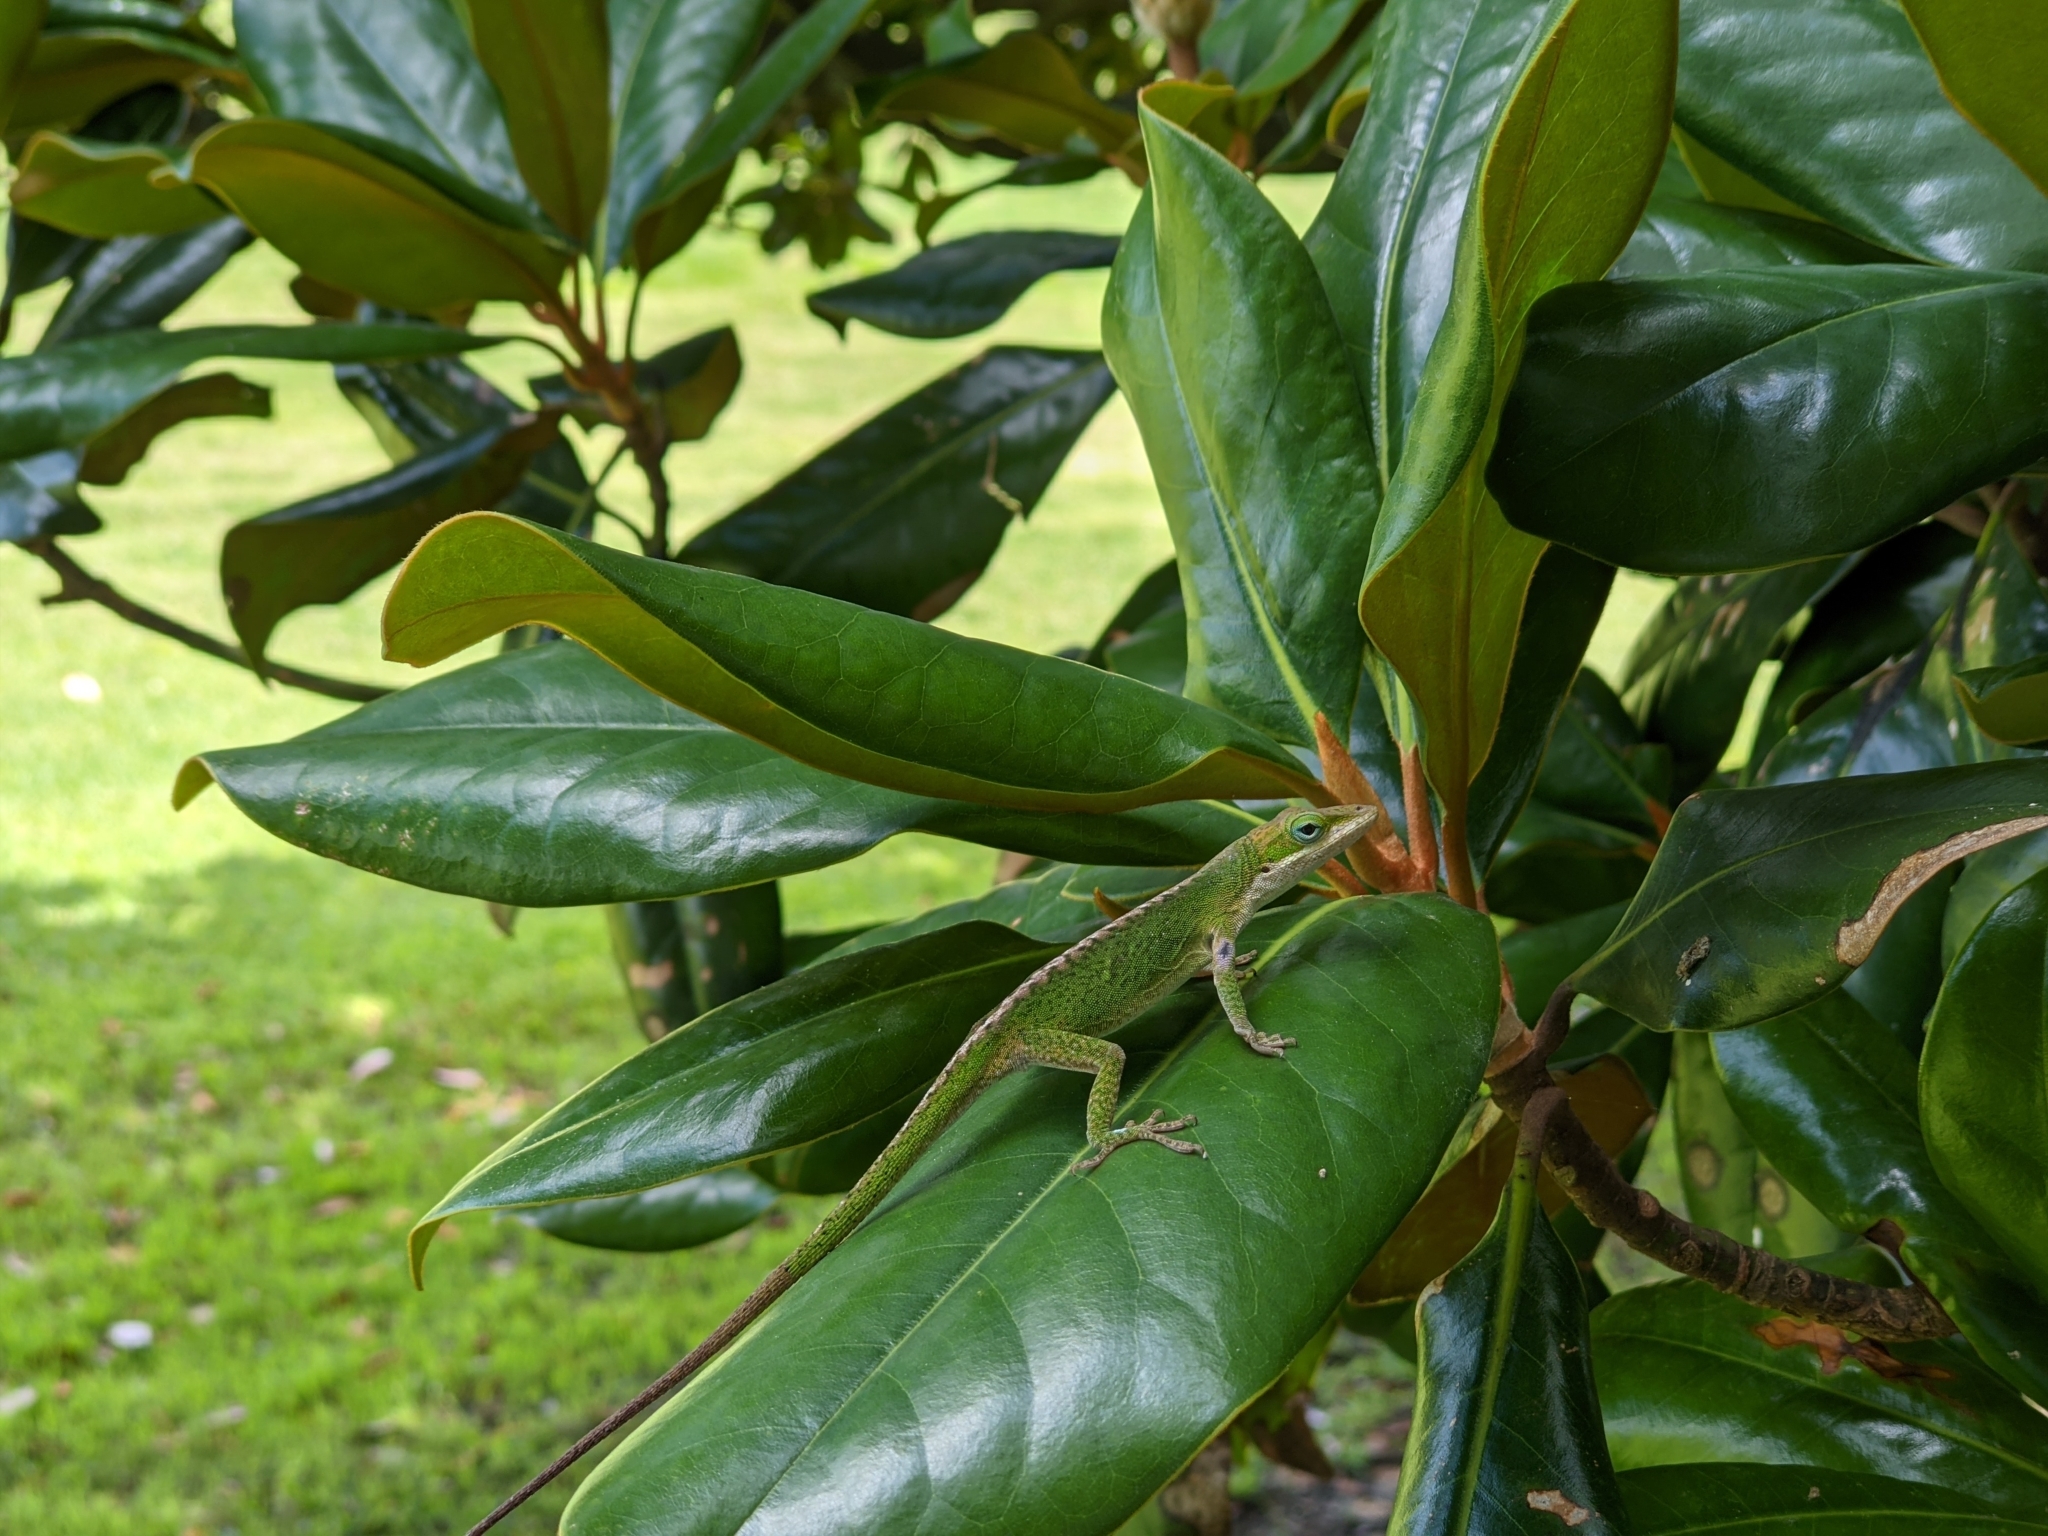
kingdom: Animalia
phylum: Chordata
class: Squamata
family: Dactyloidae
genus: Anolis
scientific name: Anolis carolinensis
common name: Green anole
